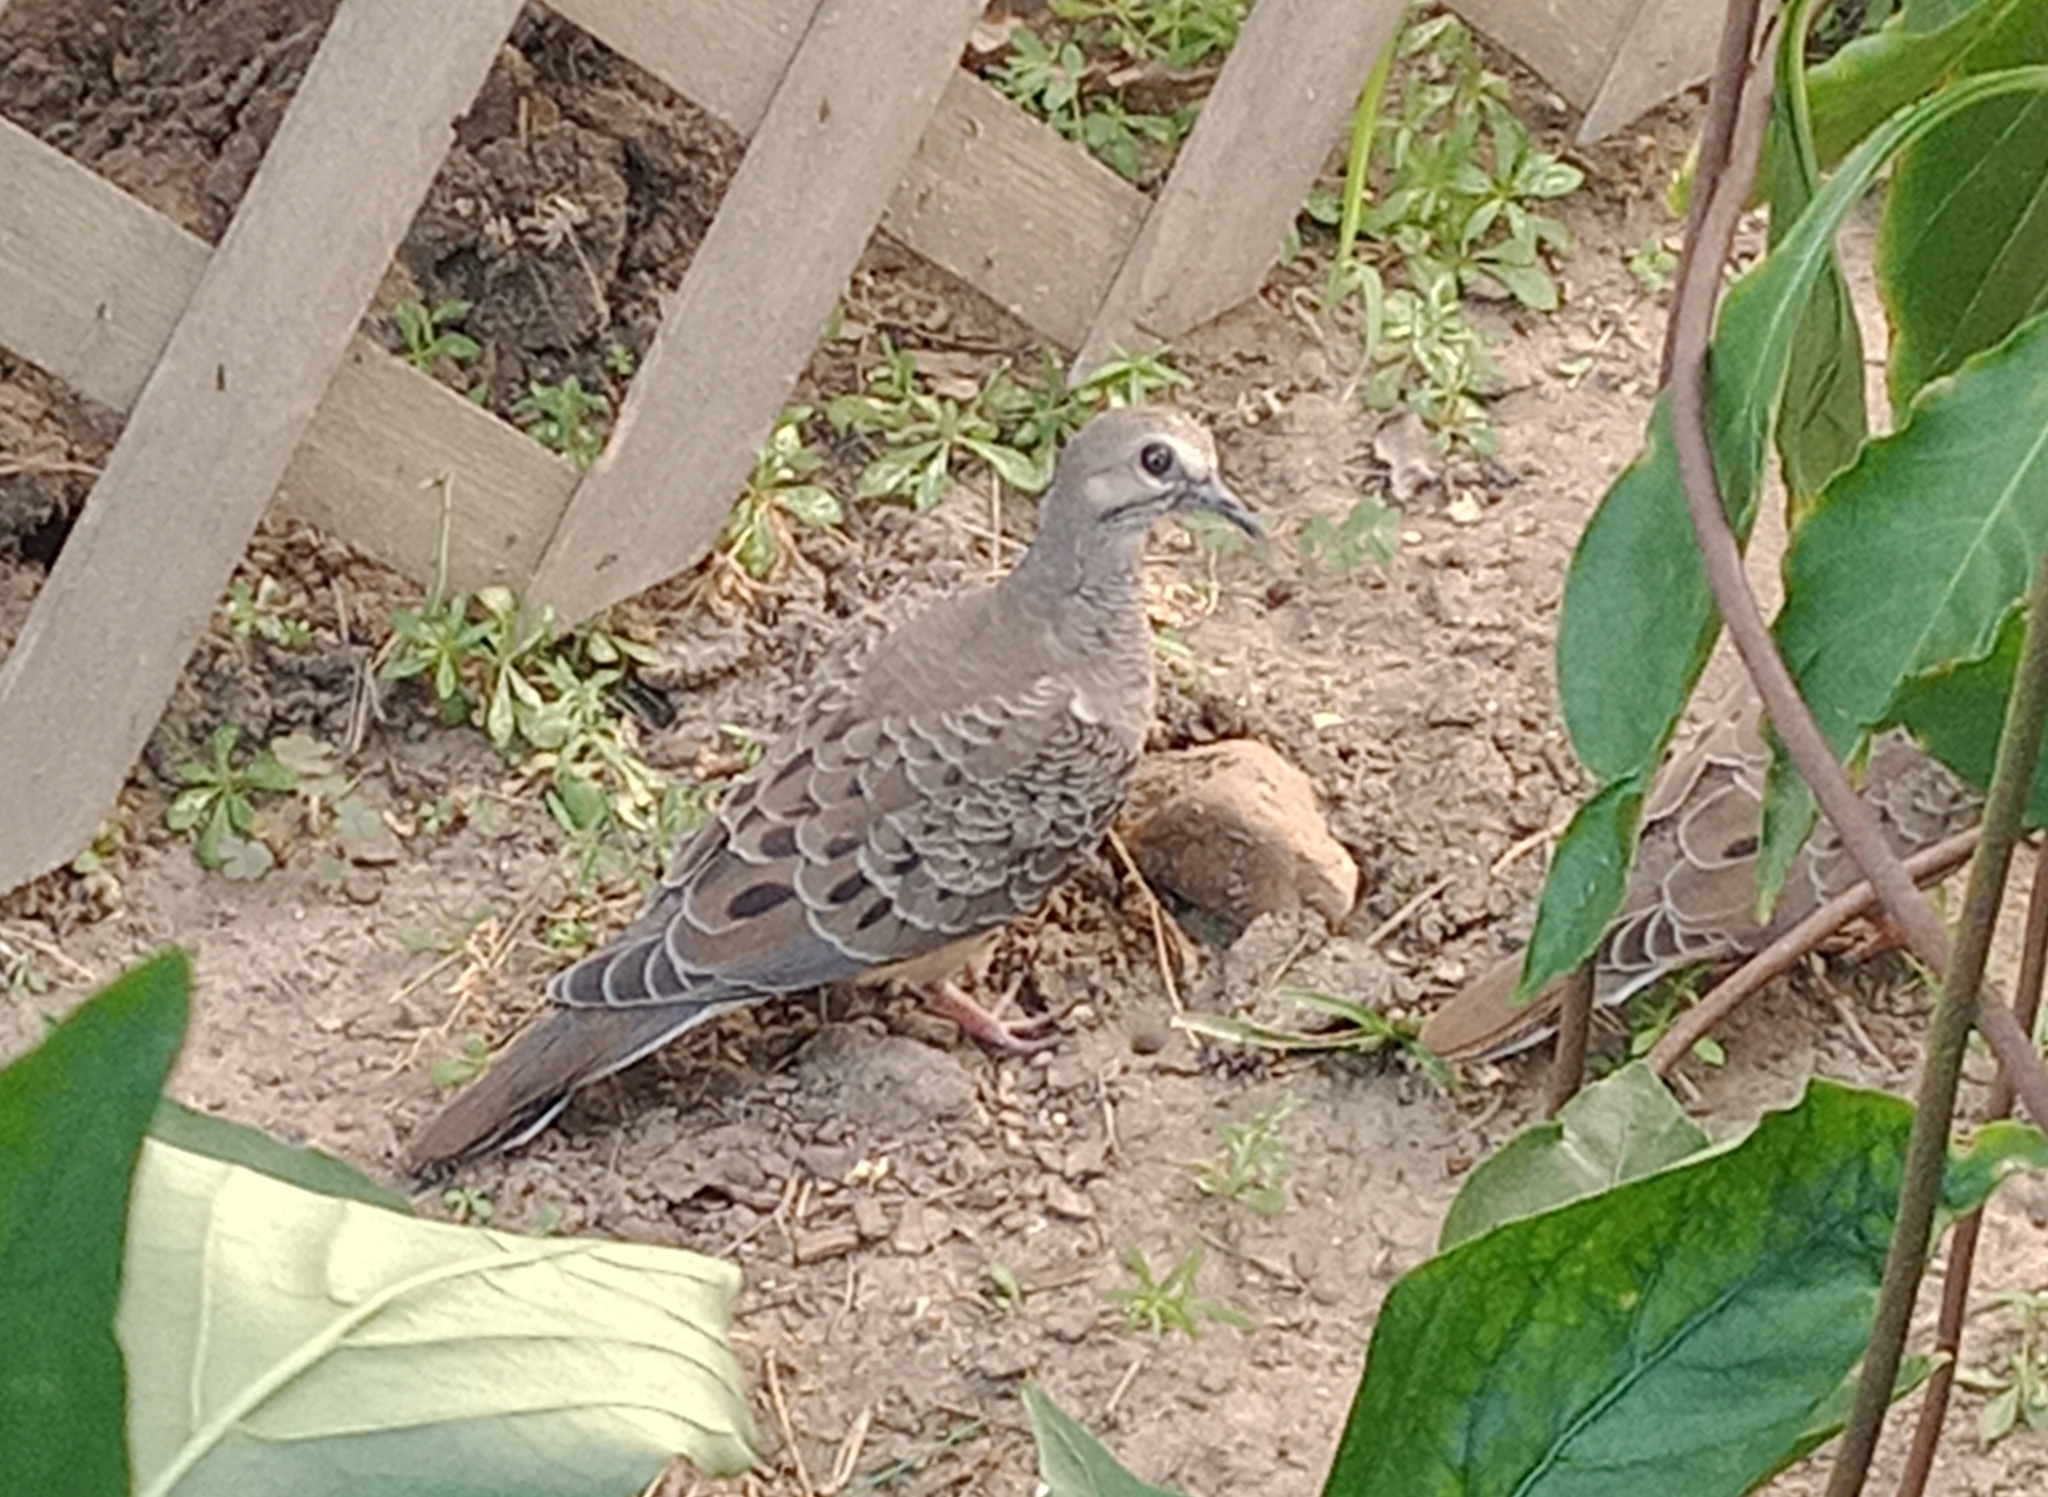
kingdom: Animalia
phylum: Chordata
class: Aves
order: Columbiformes
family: Columbidae
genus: Zenaida
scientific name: Zenaida macroura
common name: Mourning dove
